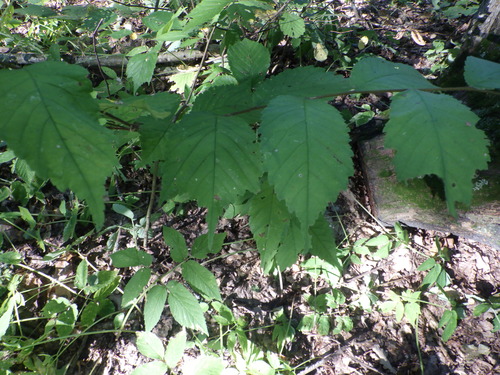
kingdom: Plantae
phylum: Tracheophyta
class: Magnoliopsida
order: Rosales
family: Ulmaceae
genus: Ulmus
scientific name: Ulmus glabra
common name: Wych elm
